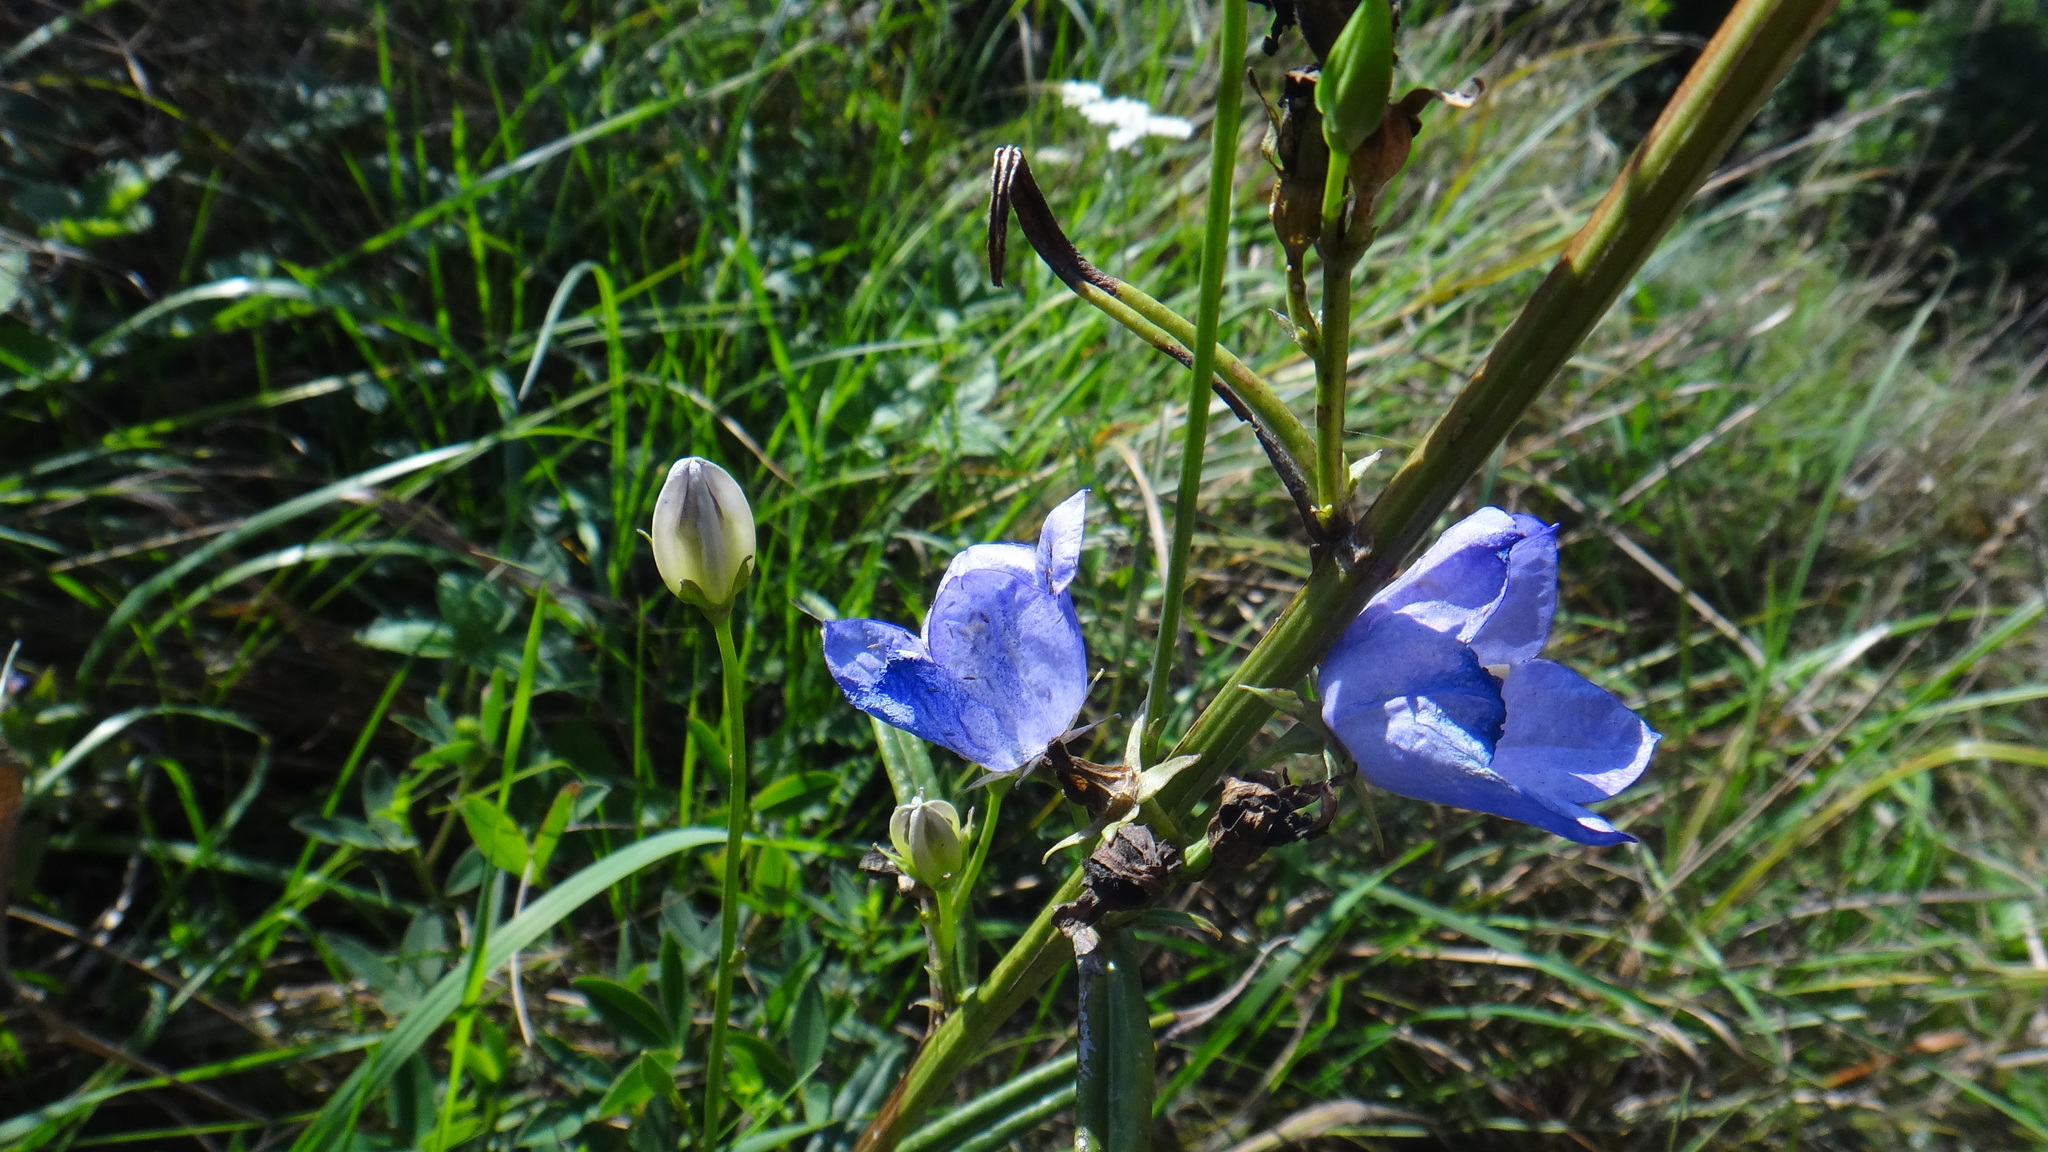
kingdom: Plantae
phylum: Tracheophyta
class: Magnoliopsida
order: Asterales
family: Campanulaceae
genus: Campanula
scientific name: Campanula persicifolia
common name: Peach-leaved bellflower
